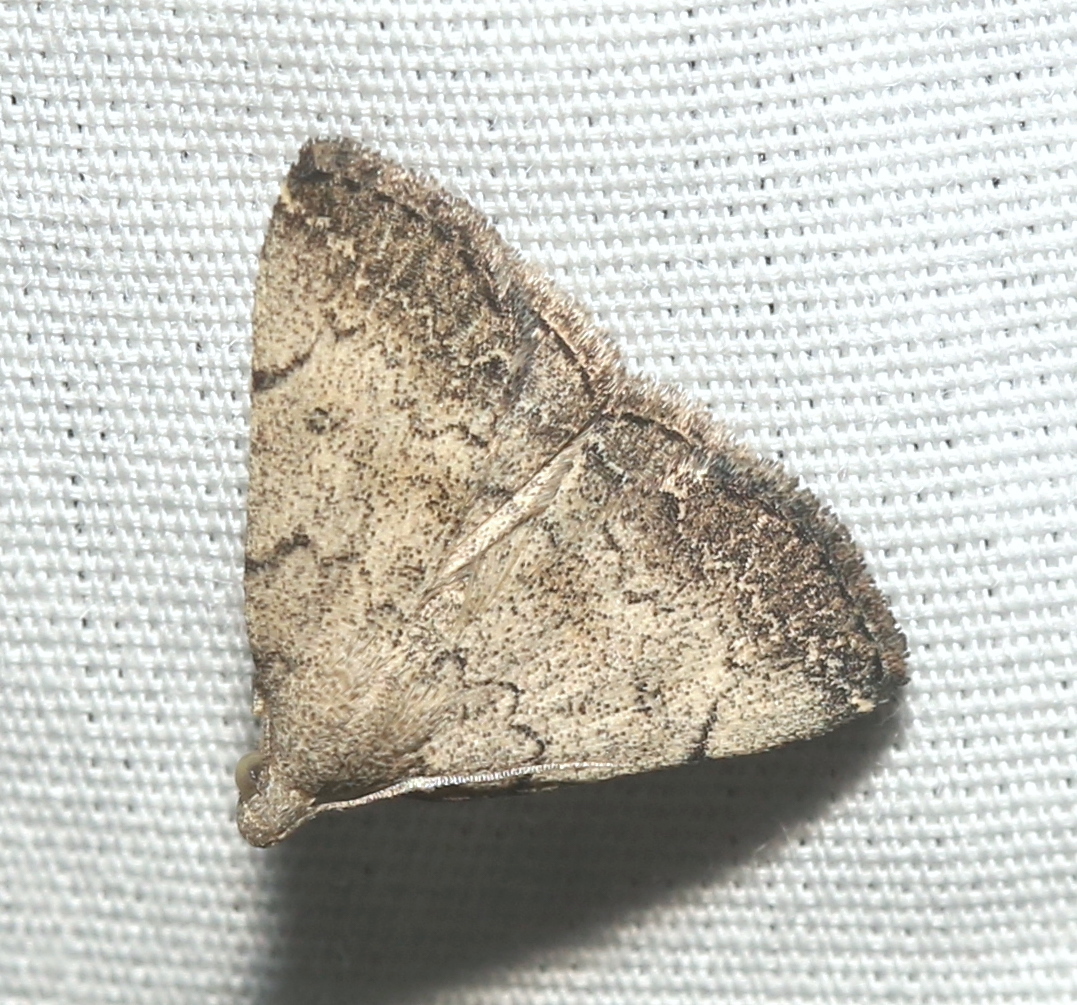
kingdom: Animalia
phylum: Arthropoda
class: Insecta
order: Lepidoptera
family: Erebidae
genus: Zanclognatha
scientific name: Zanclognatha theralis
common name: Flagged fan-foot
